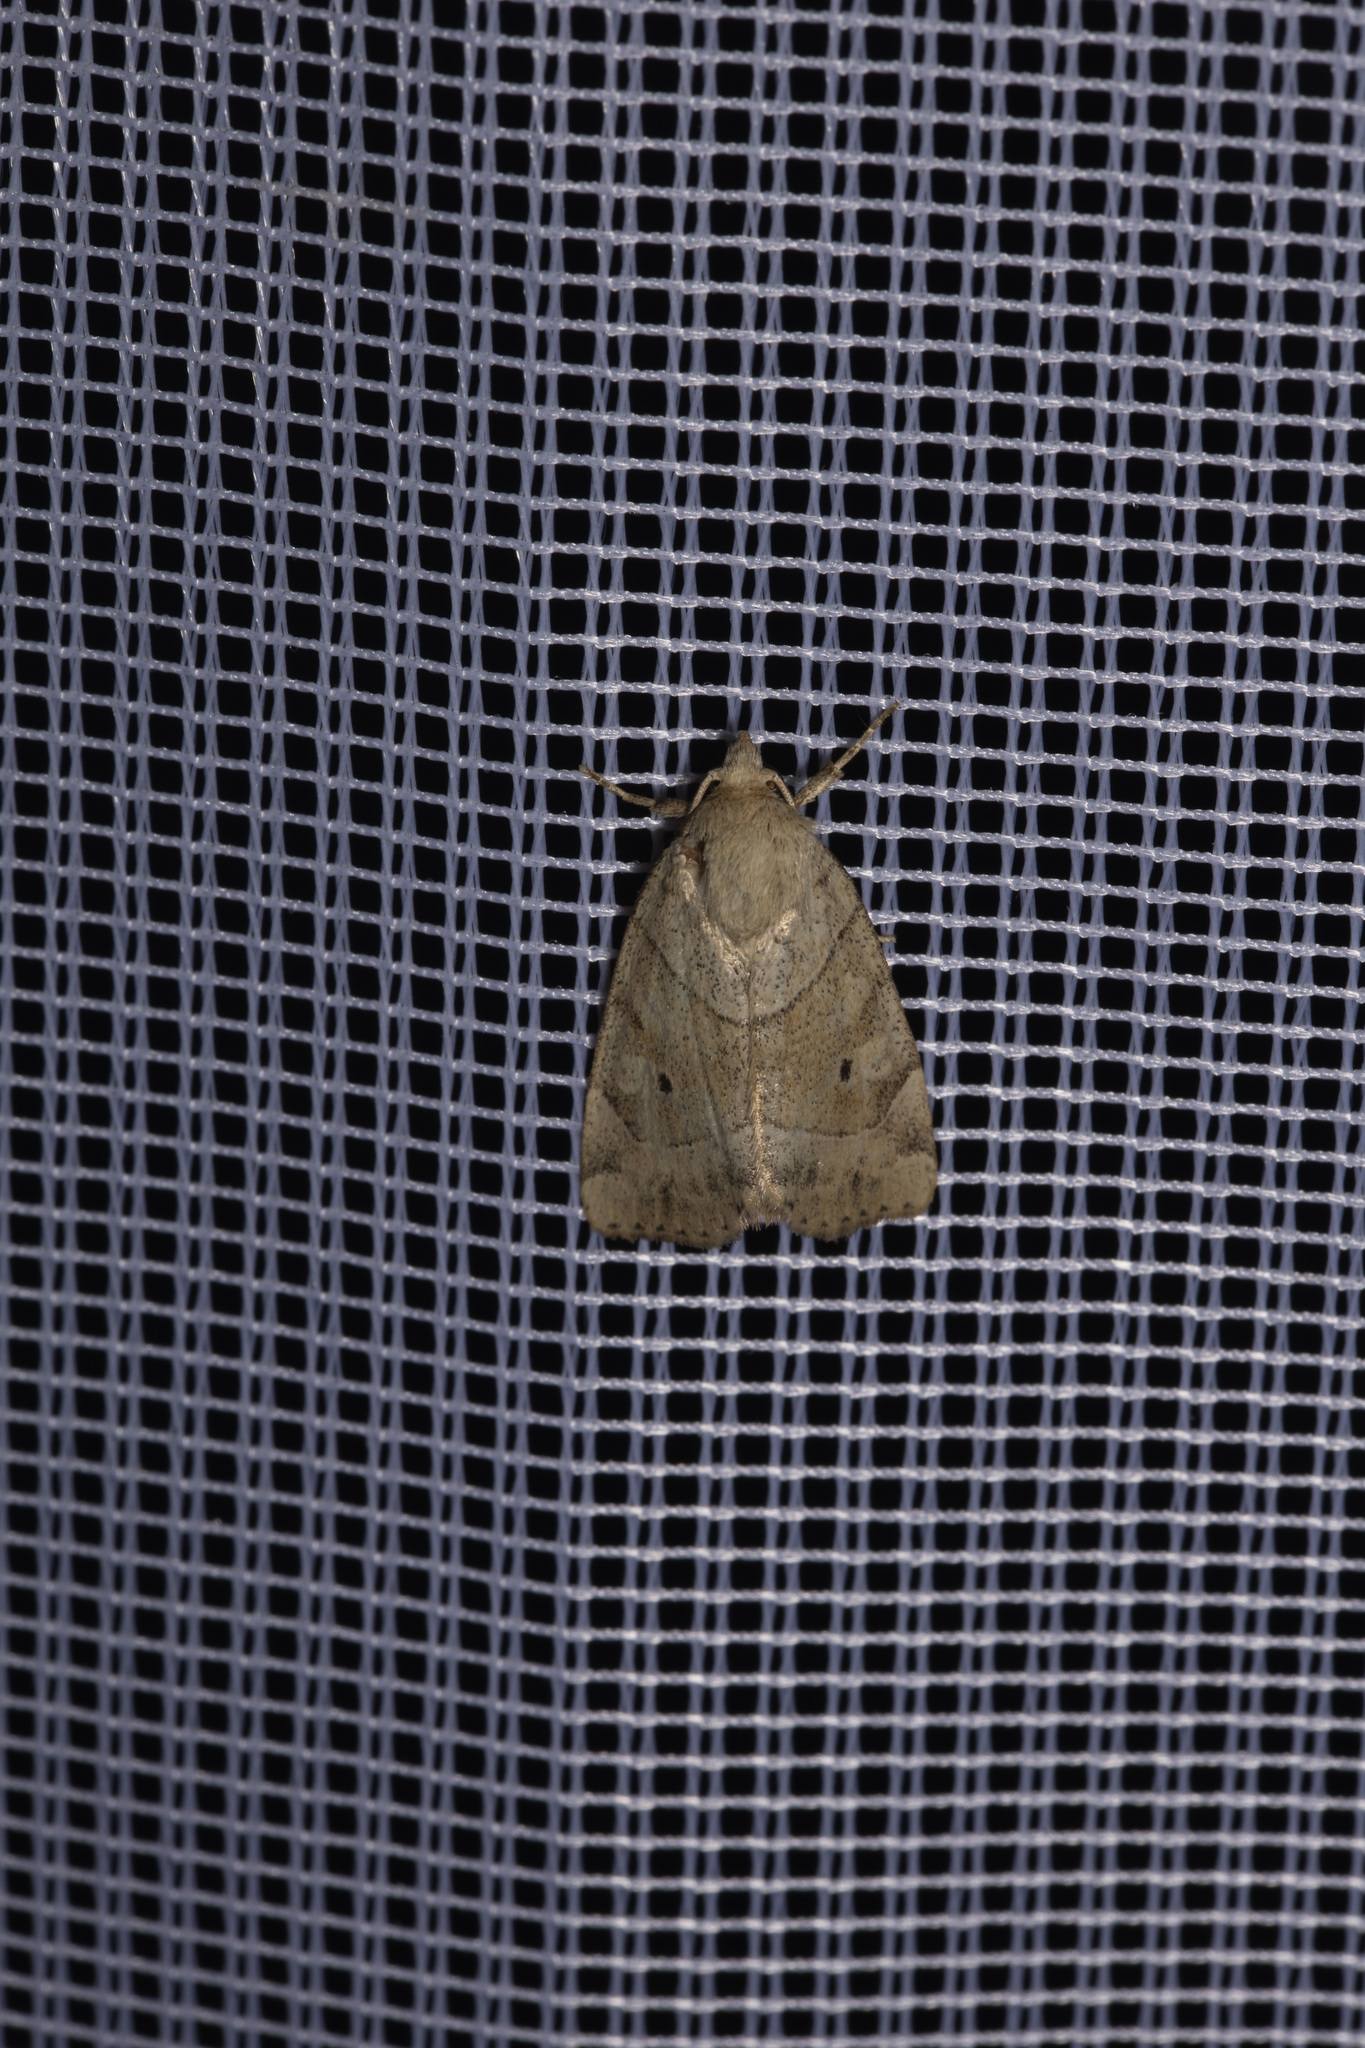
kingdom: Animalia
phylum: Arthropoda
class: Insecta
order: Lepidoptera
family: Noctuidae
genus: Cosmia
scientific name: Cosmia trapezina
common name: Dun-bar
